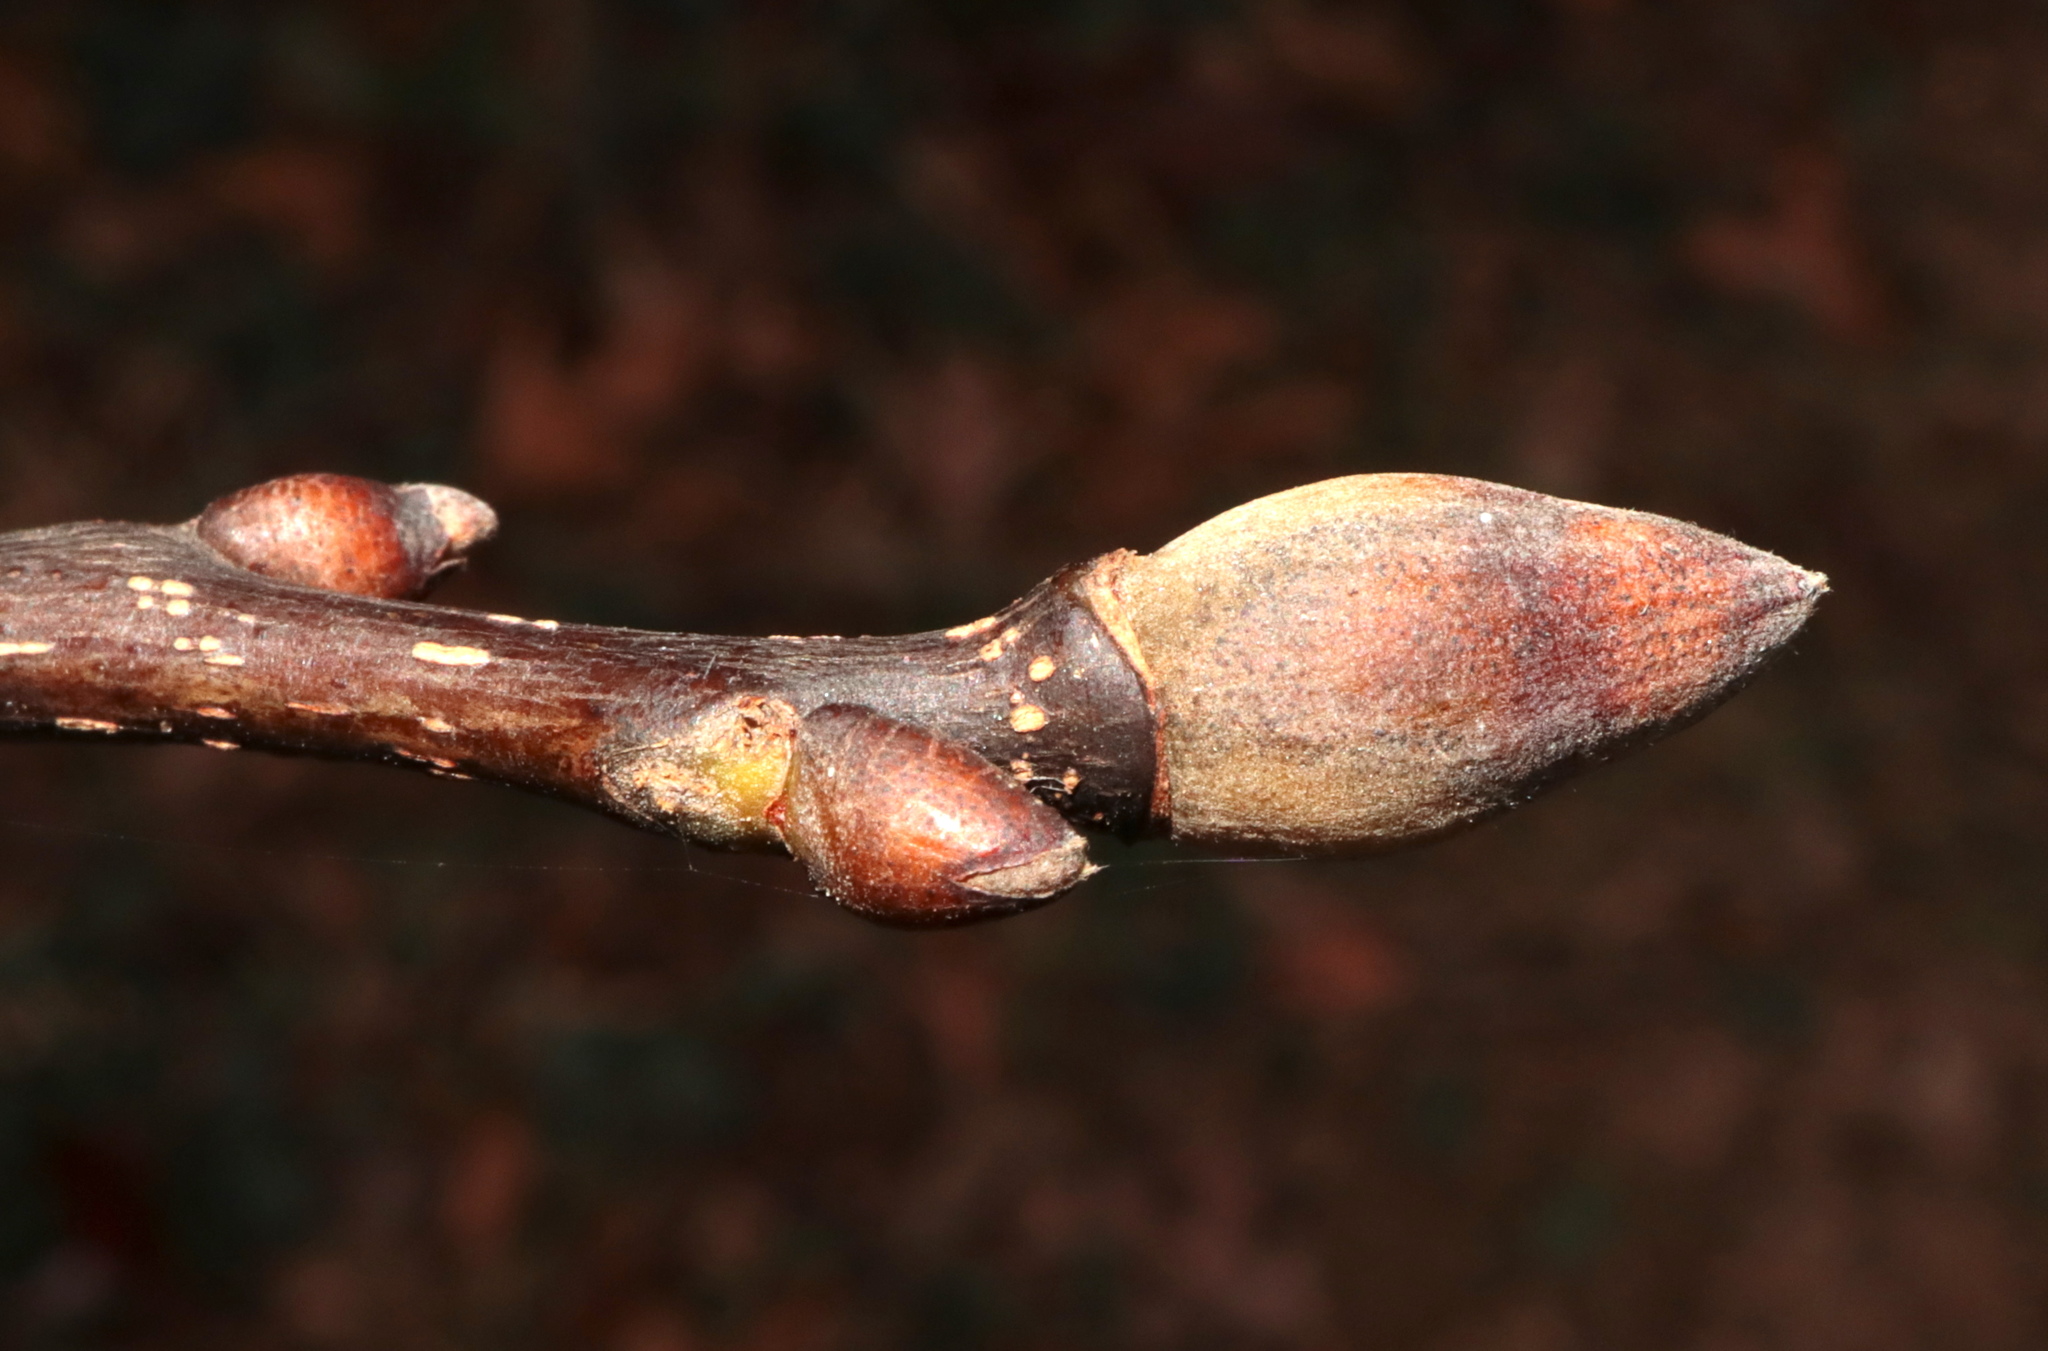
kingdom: Plantae
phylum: Tracheophyta
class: Magnoliopsida
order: Fagales
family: Juglandaceae
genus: Carya
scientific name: Carya glabra
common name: Pignut hickory
